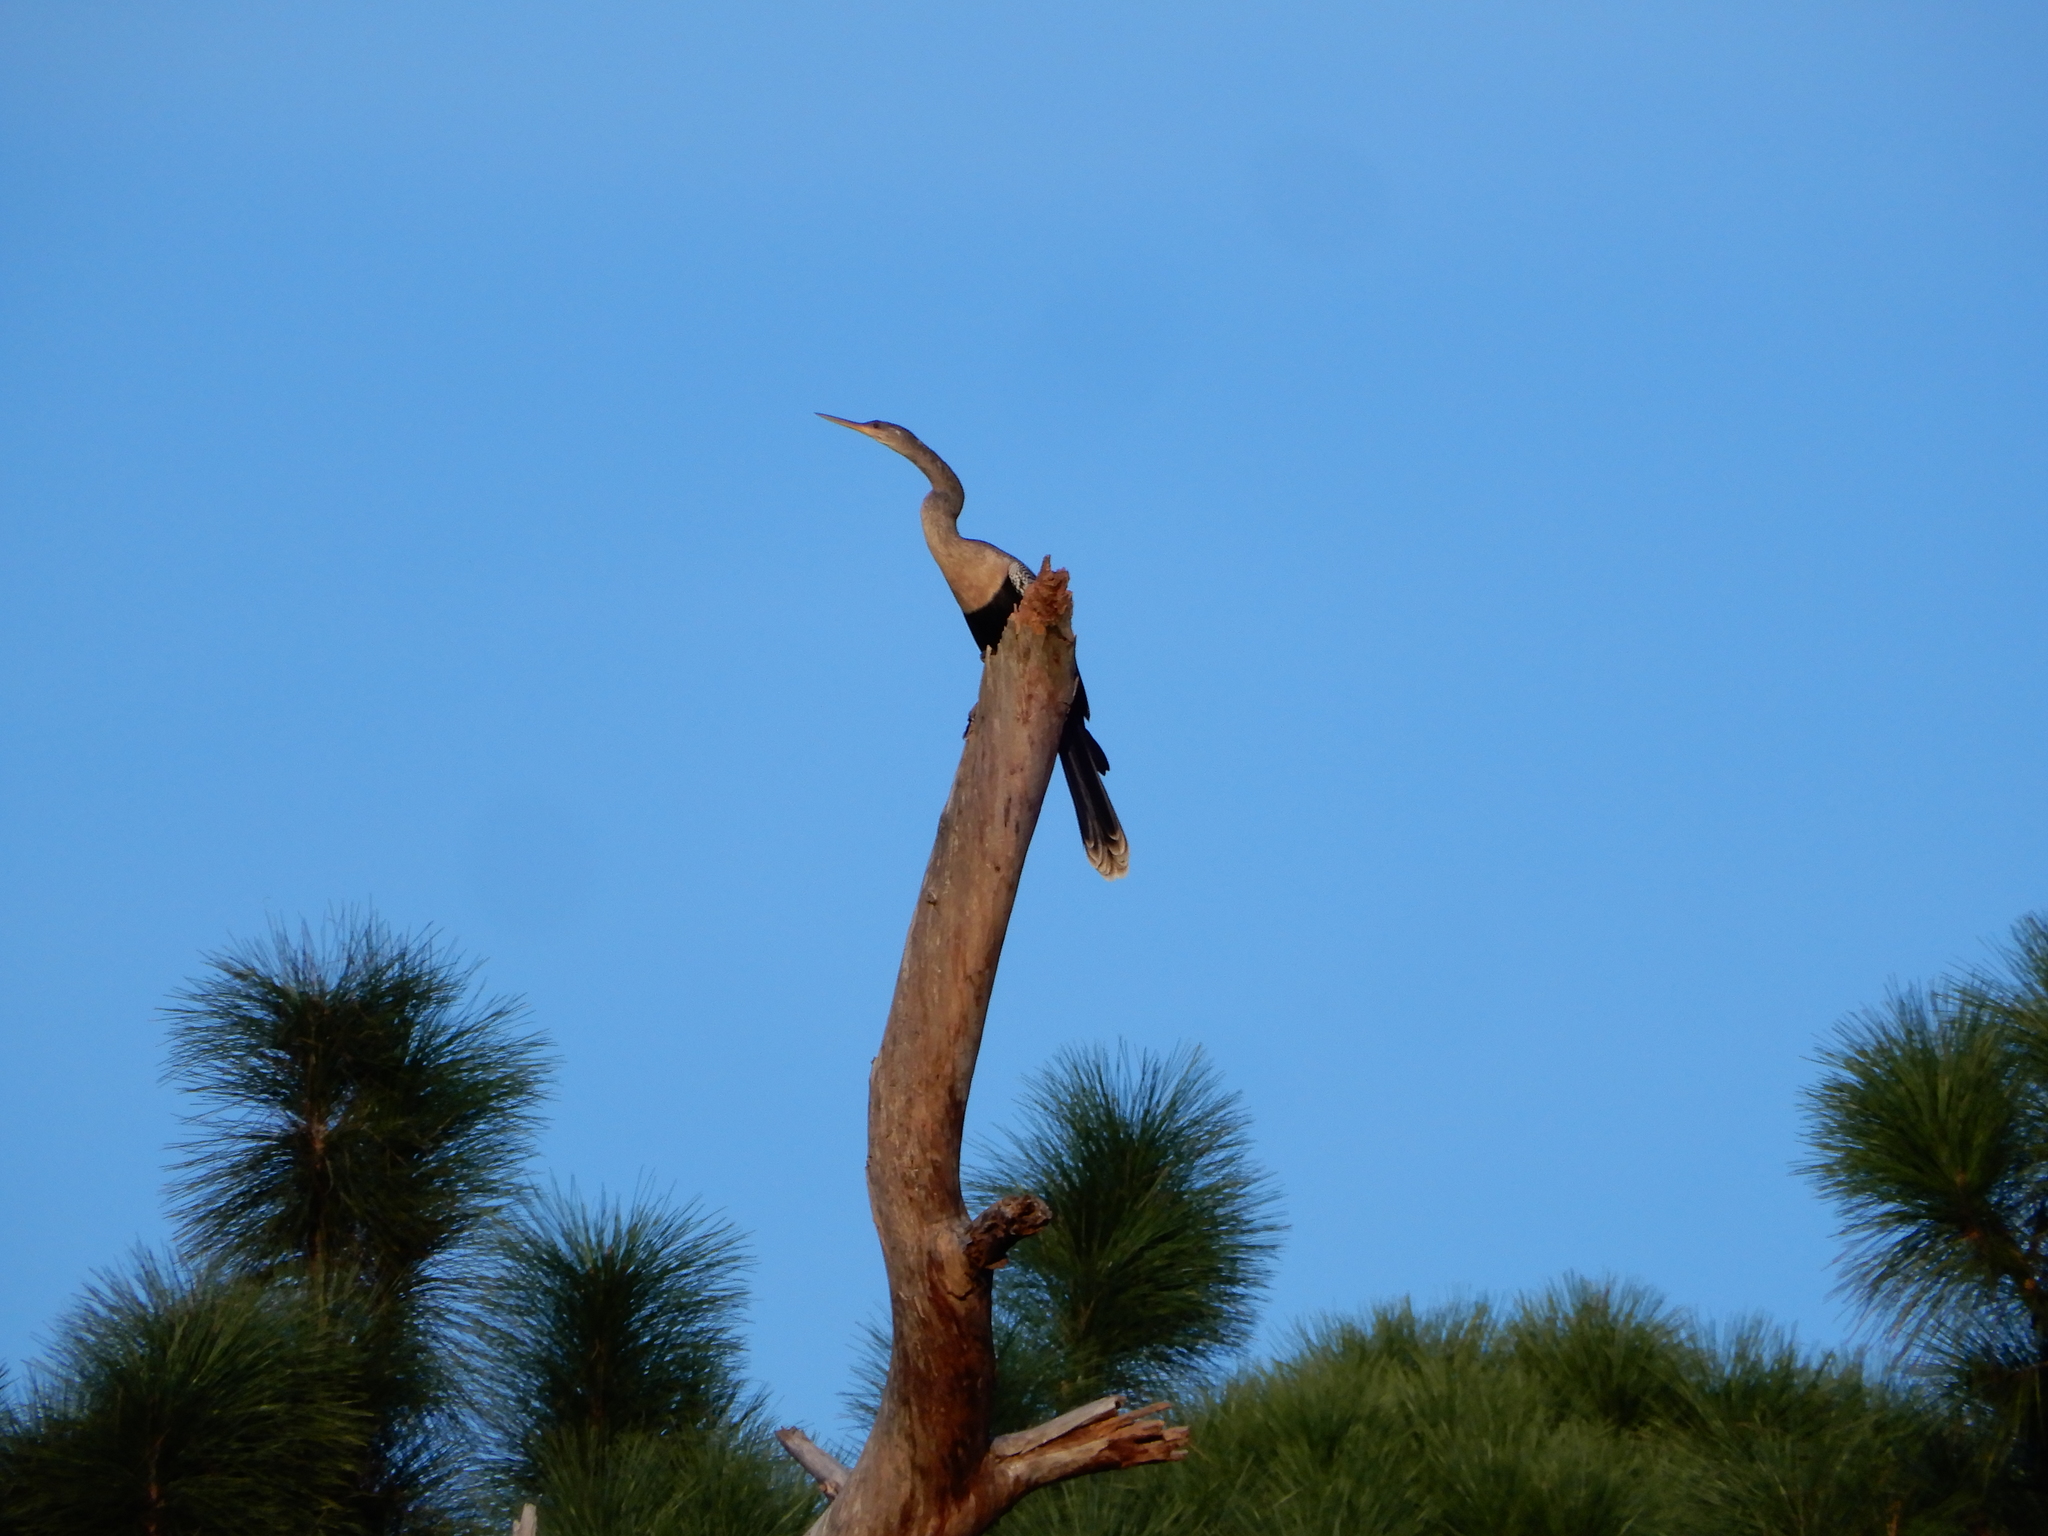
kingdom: Animalia
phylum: Chordata
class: Aves
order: Suliformes
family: Anhingidae
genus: Anhinga
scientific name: Anhinga anhinga
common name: Anhinga
